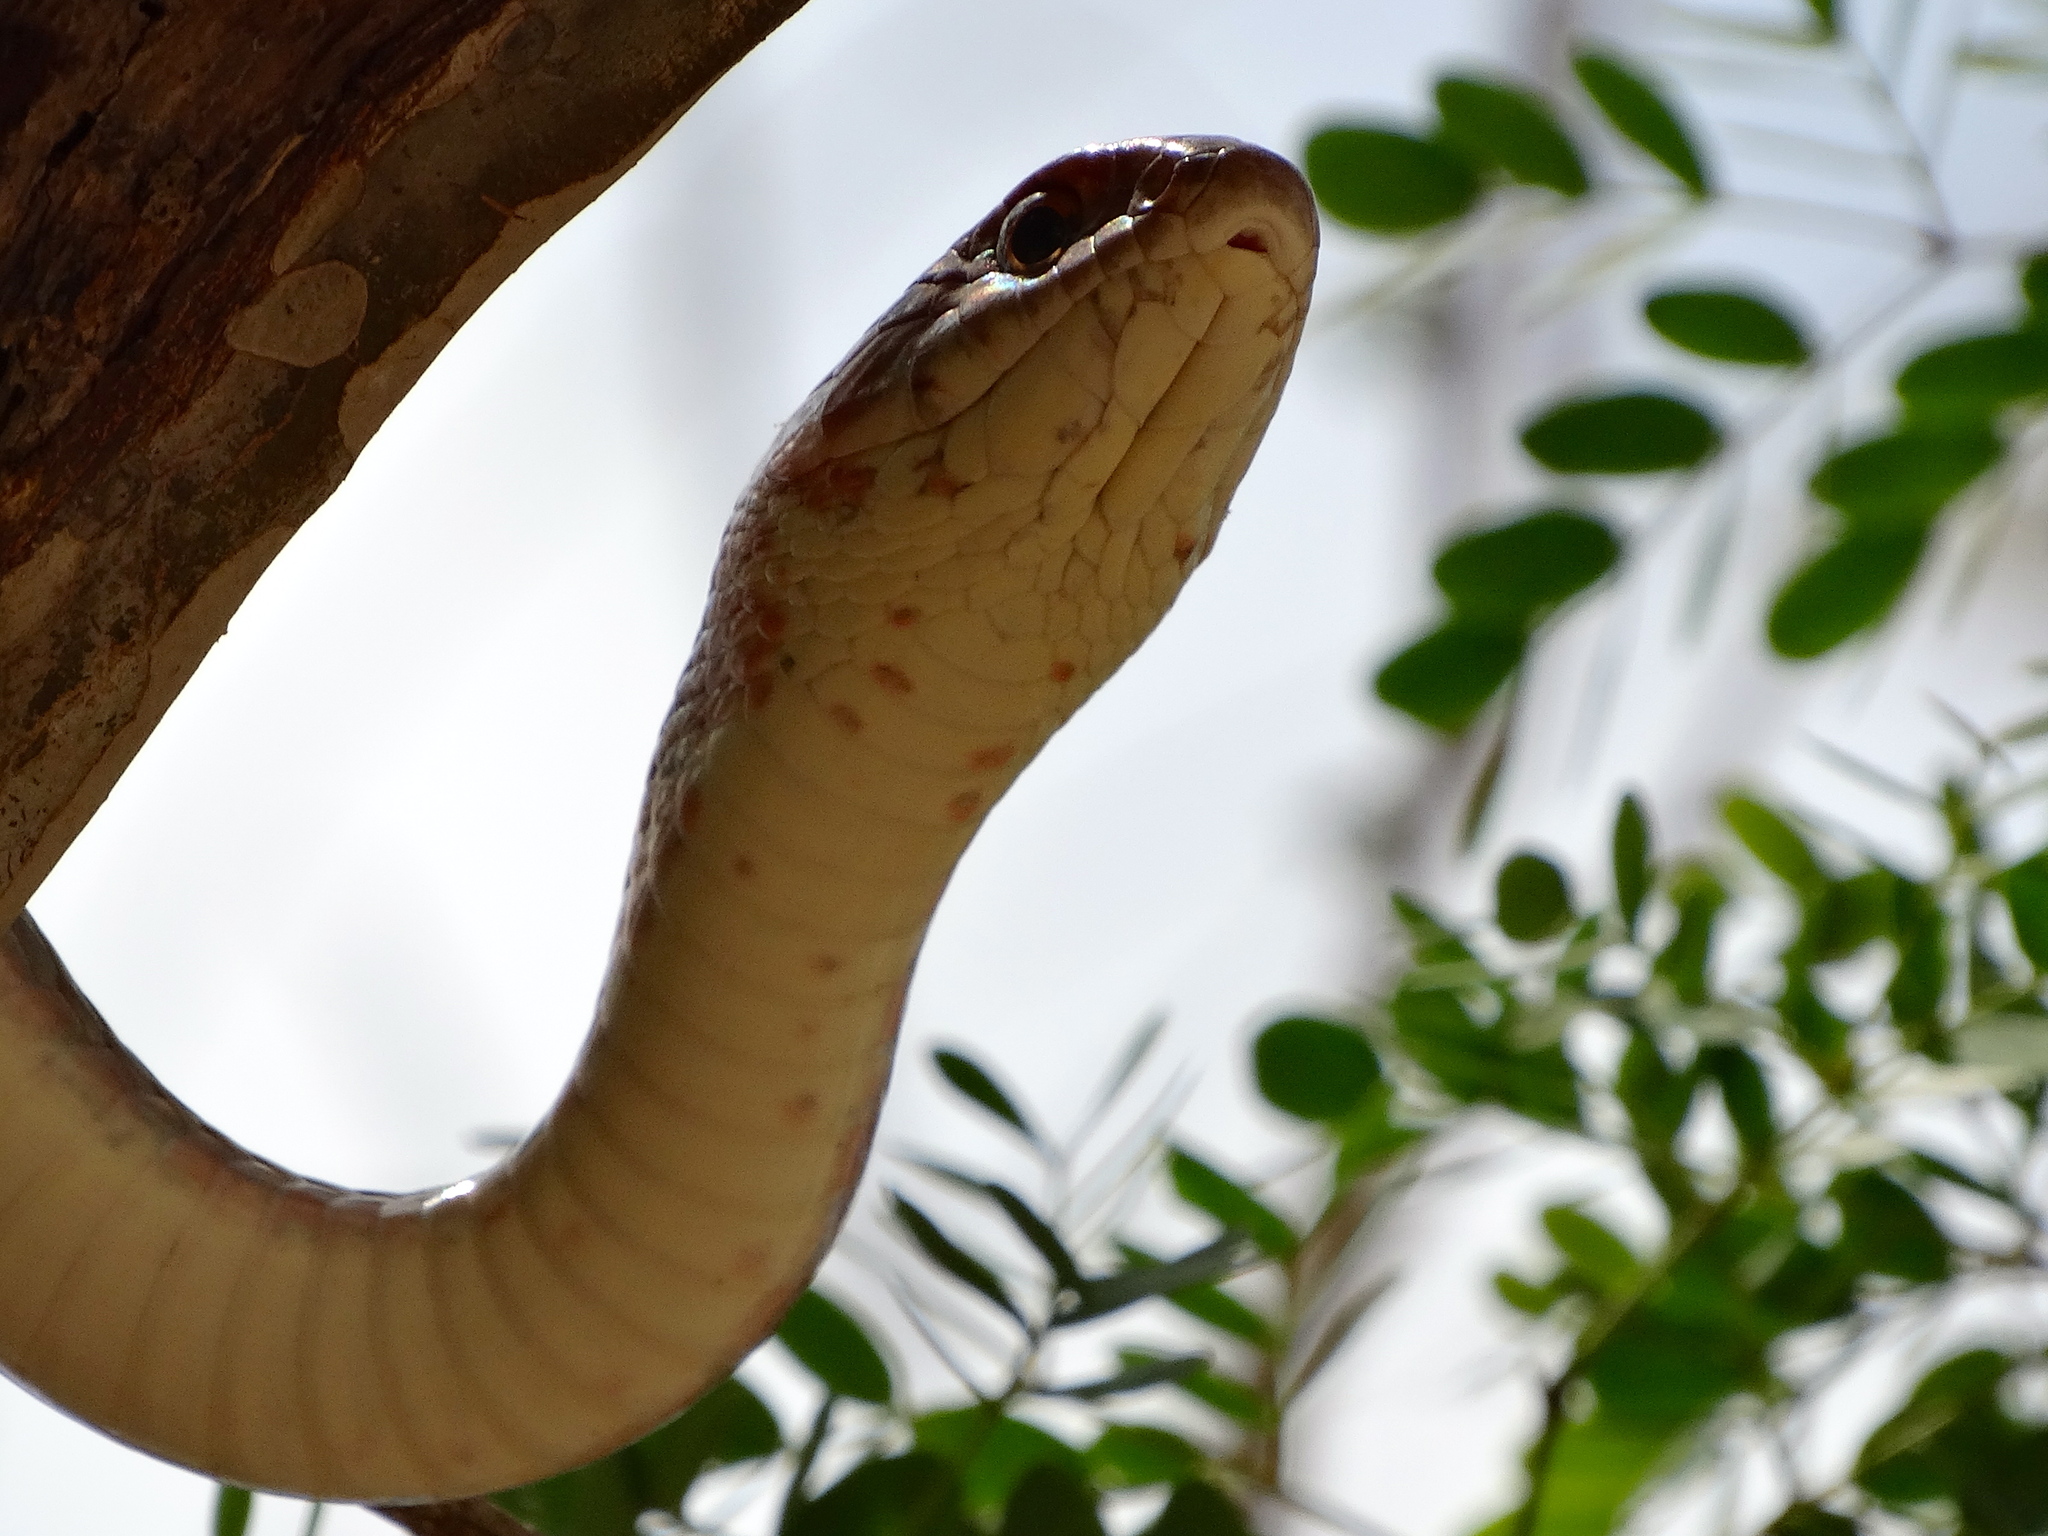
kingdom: Animalia
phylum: Chordata
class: Squamata
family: Colubridae
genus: Masticophis
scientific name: Masticophis mentovarius
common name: Neotropical whip snake
